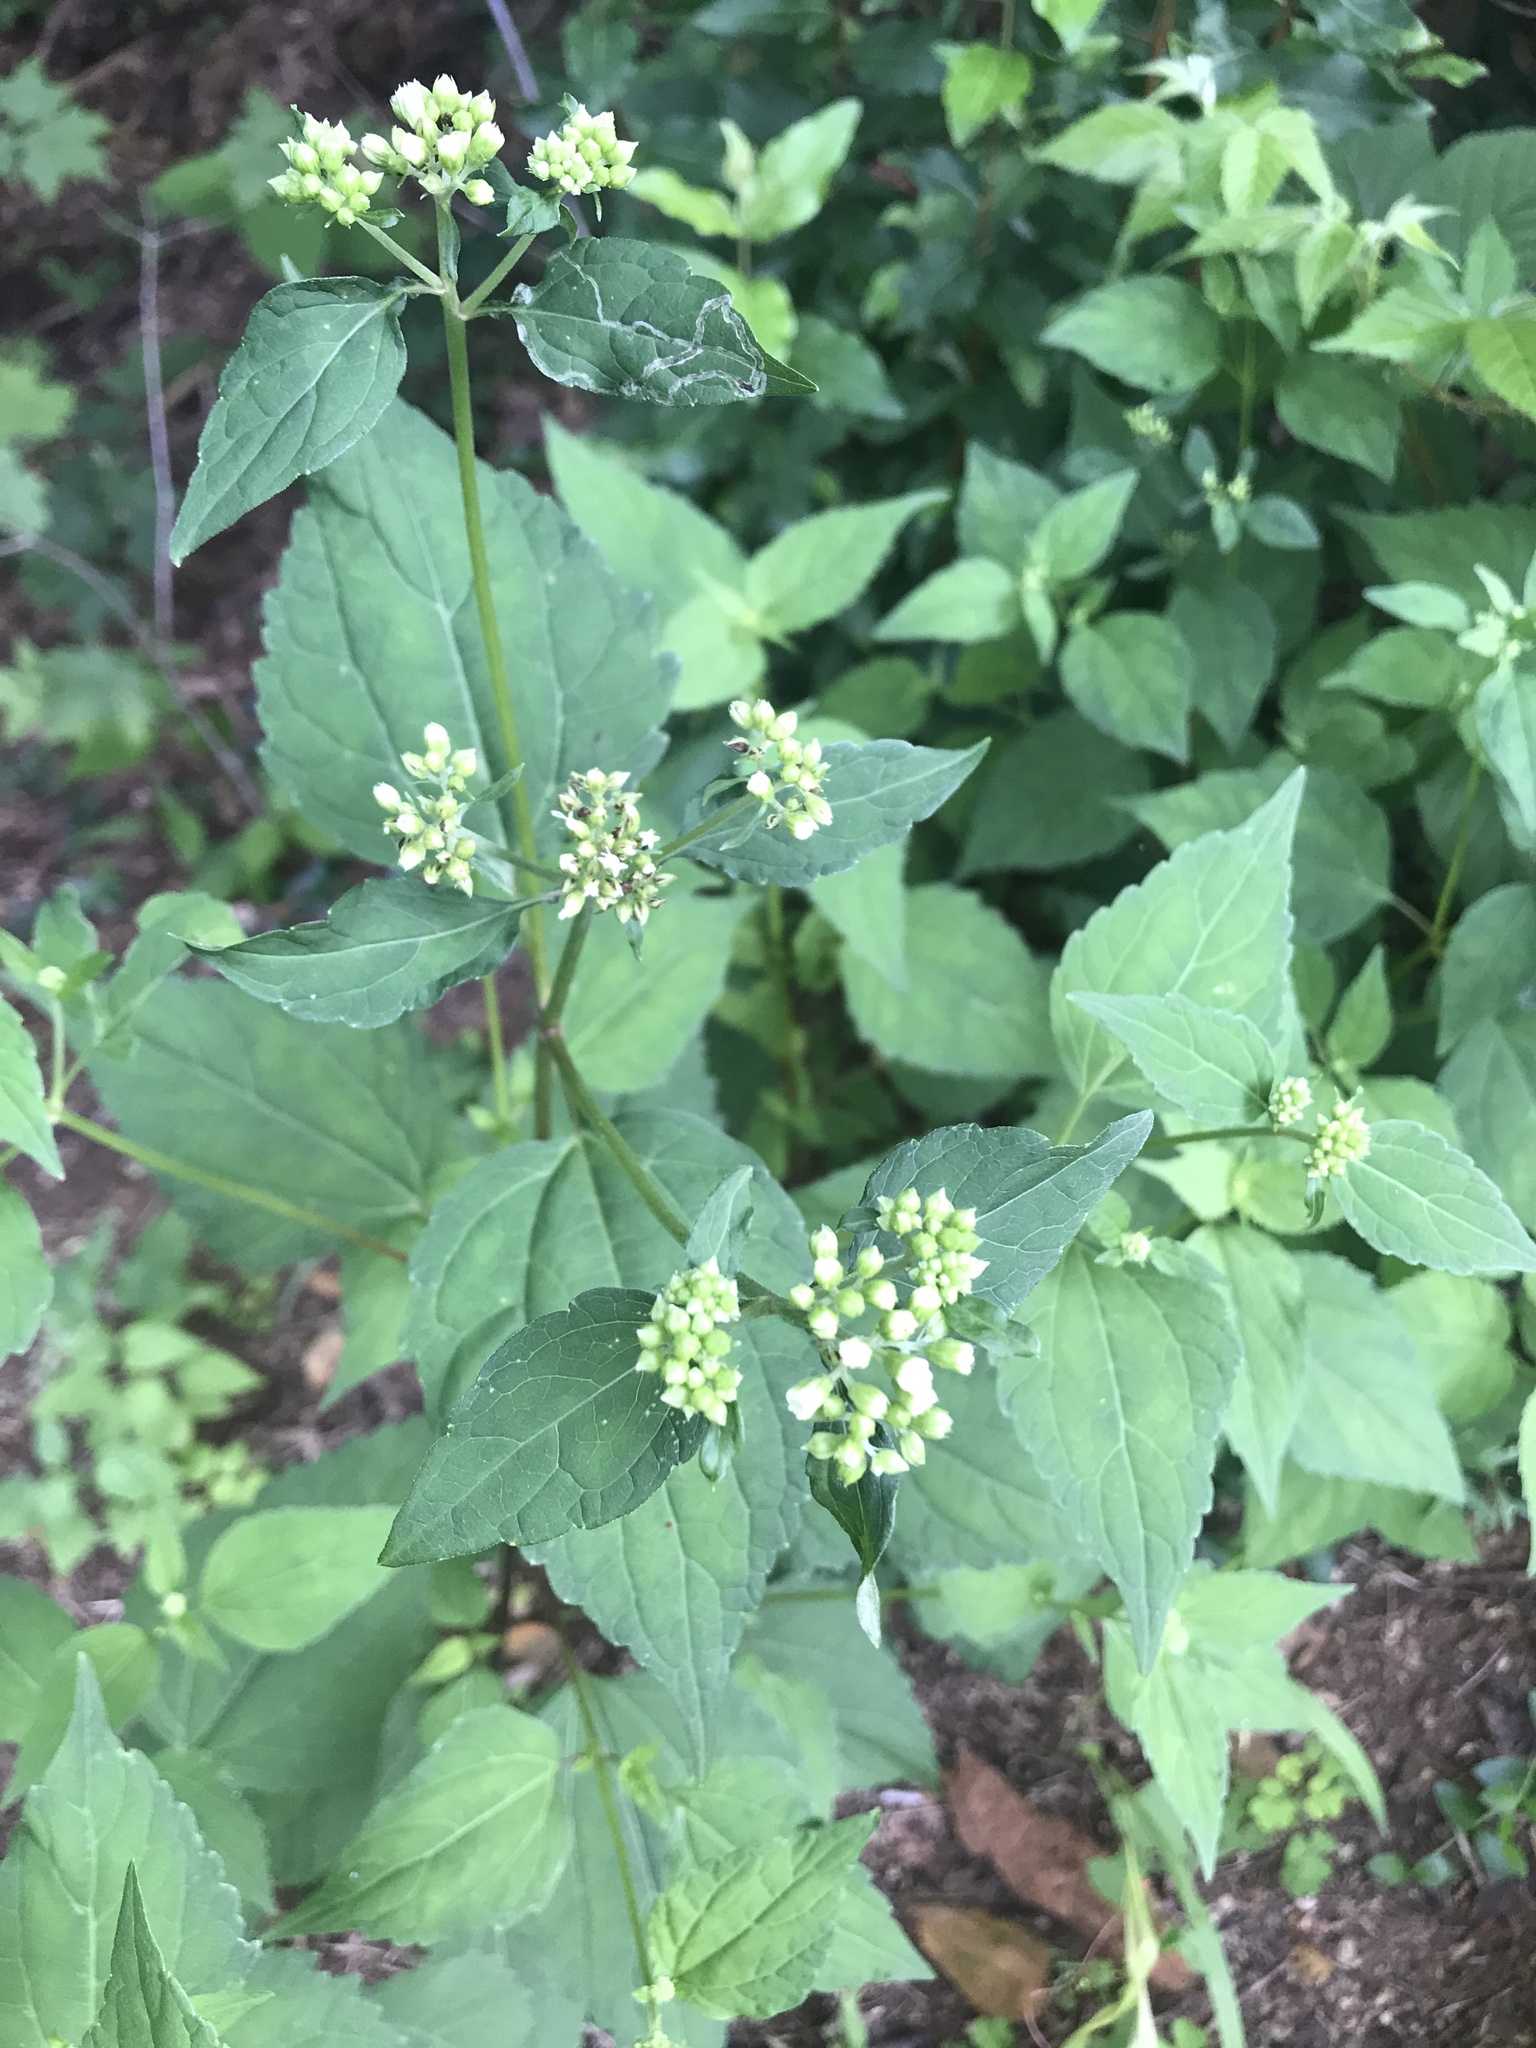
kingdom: Plantae
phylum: Tracheophyta
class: Magnoliopsida
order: Asterales
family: Asteraceae
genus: Ageratina
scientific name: Ageratina altissima
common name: White snakeroot
